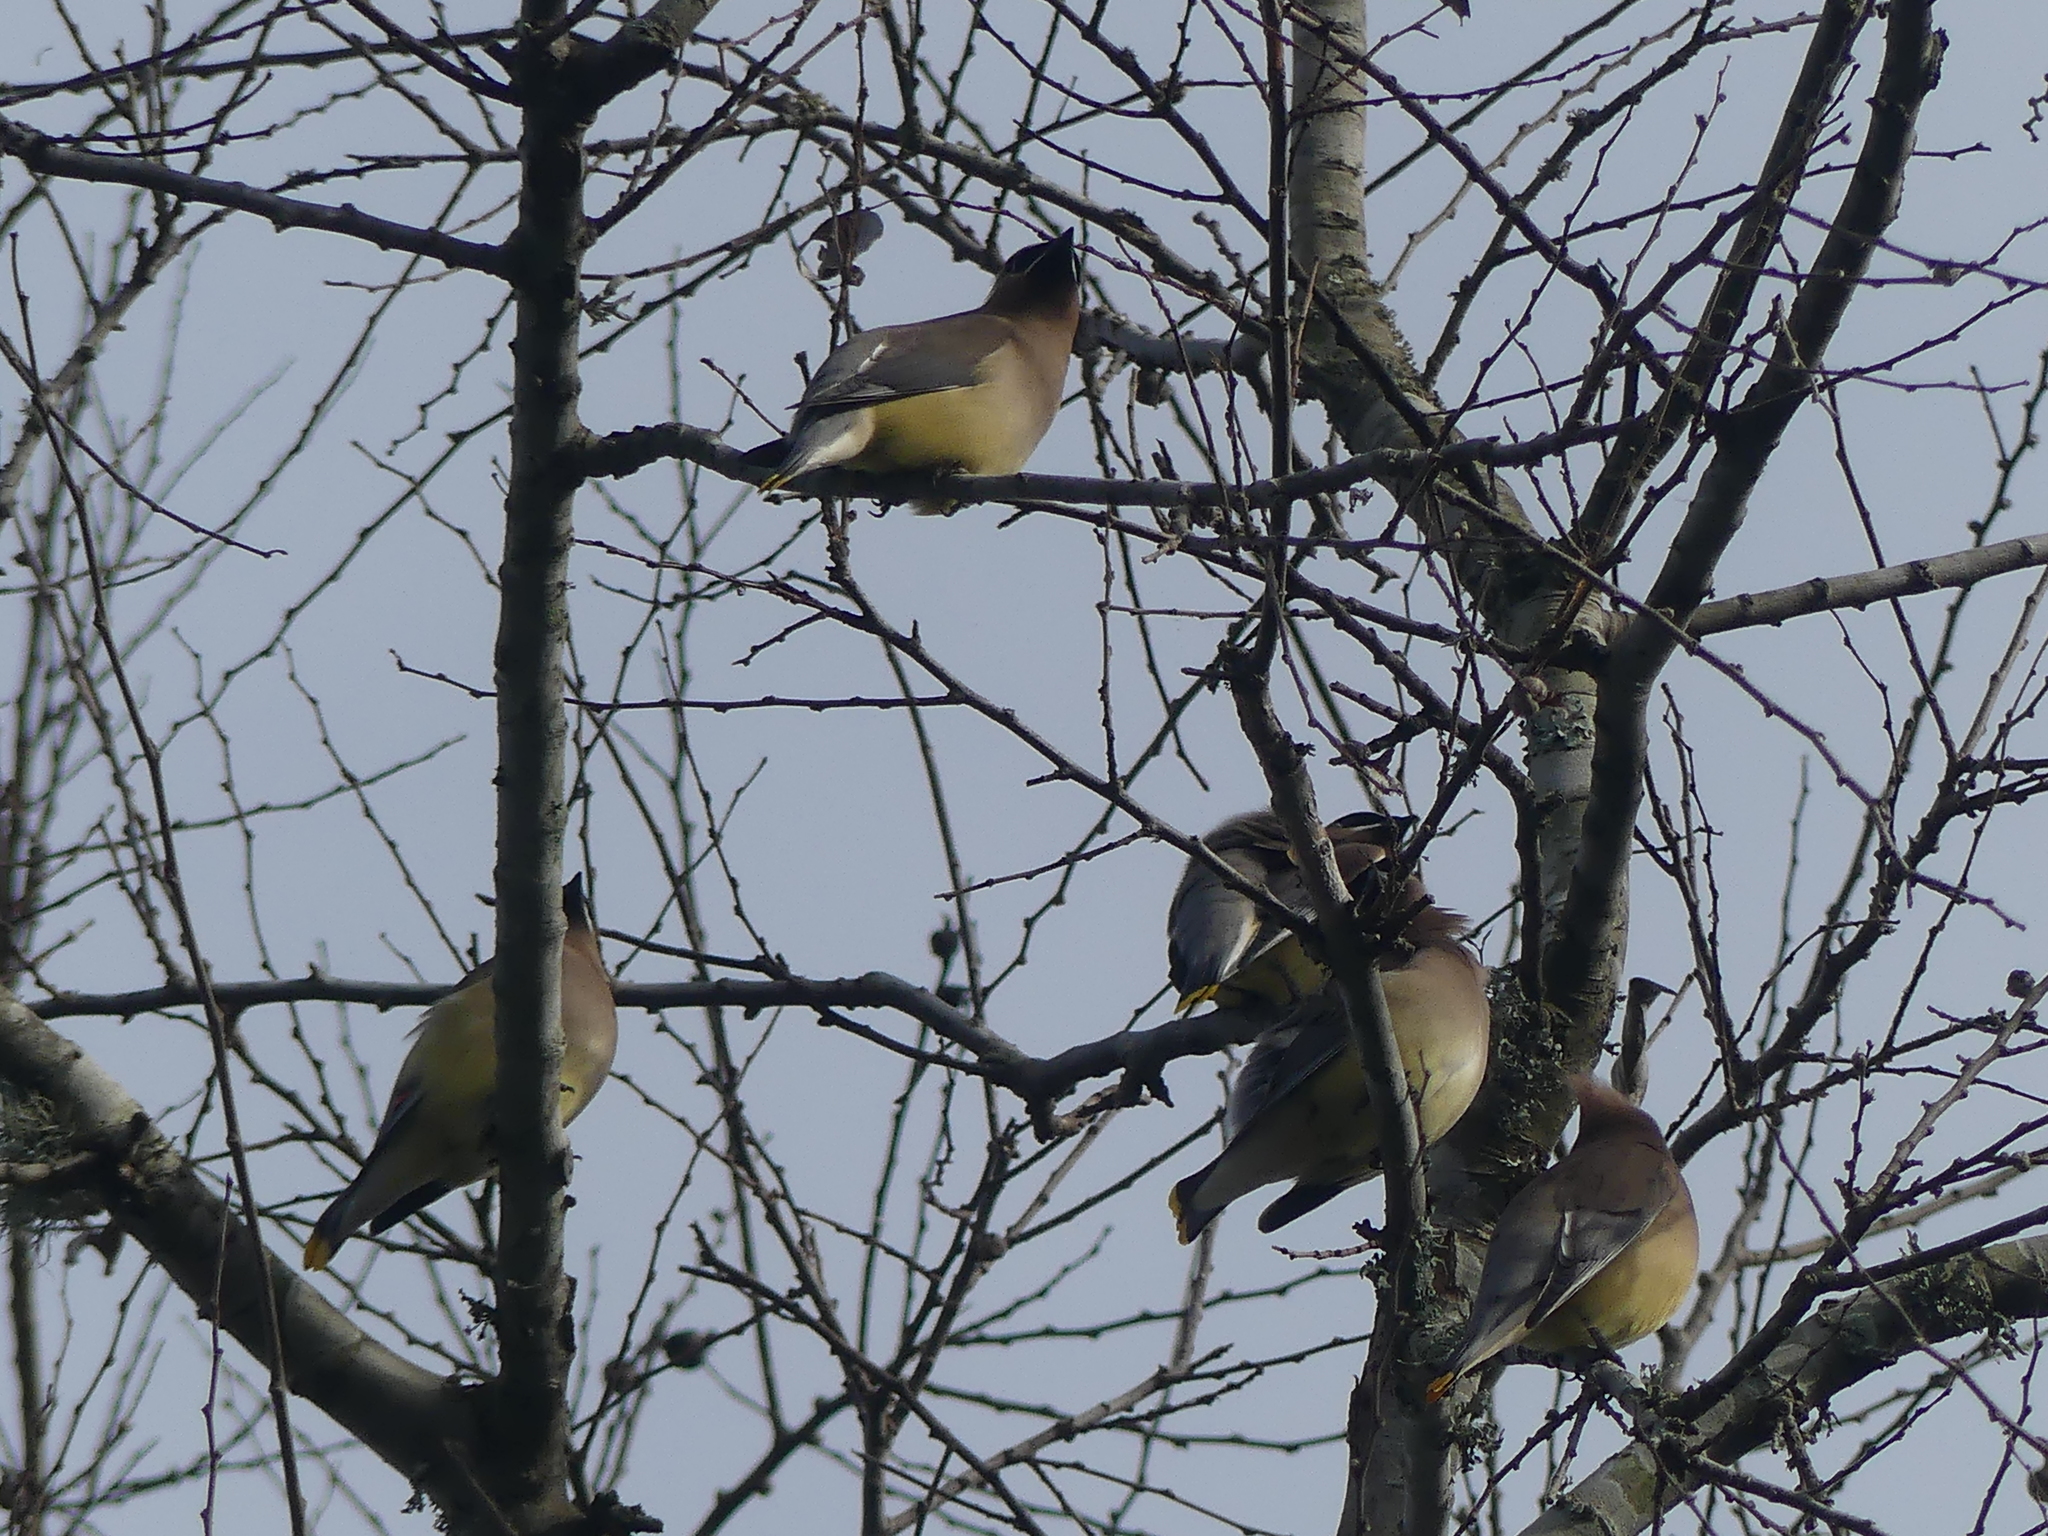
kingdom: Animalia
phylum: Chordata
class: Aves
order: Passeriformes
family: Bombycillidae
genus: Bombycilla
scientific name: Bombycilla cedrorum
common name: Cedar waxwing
